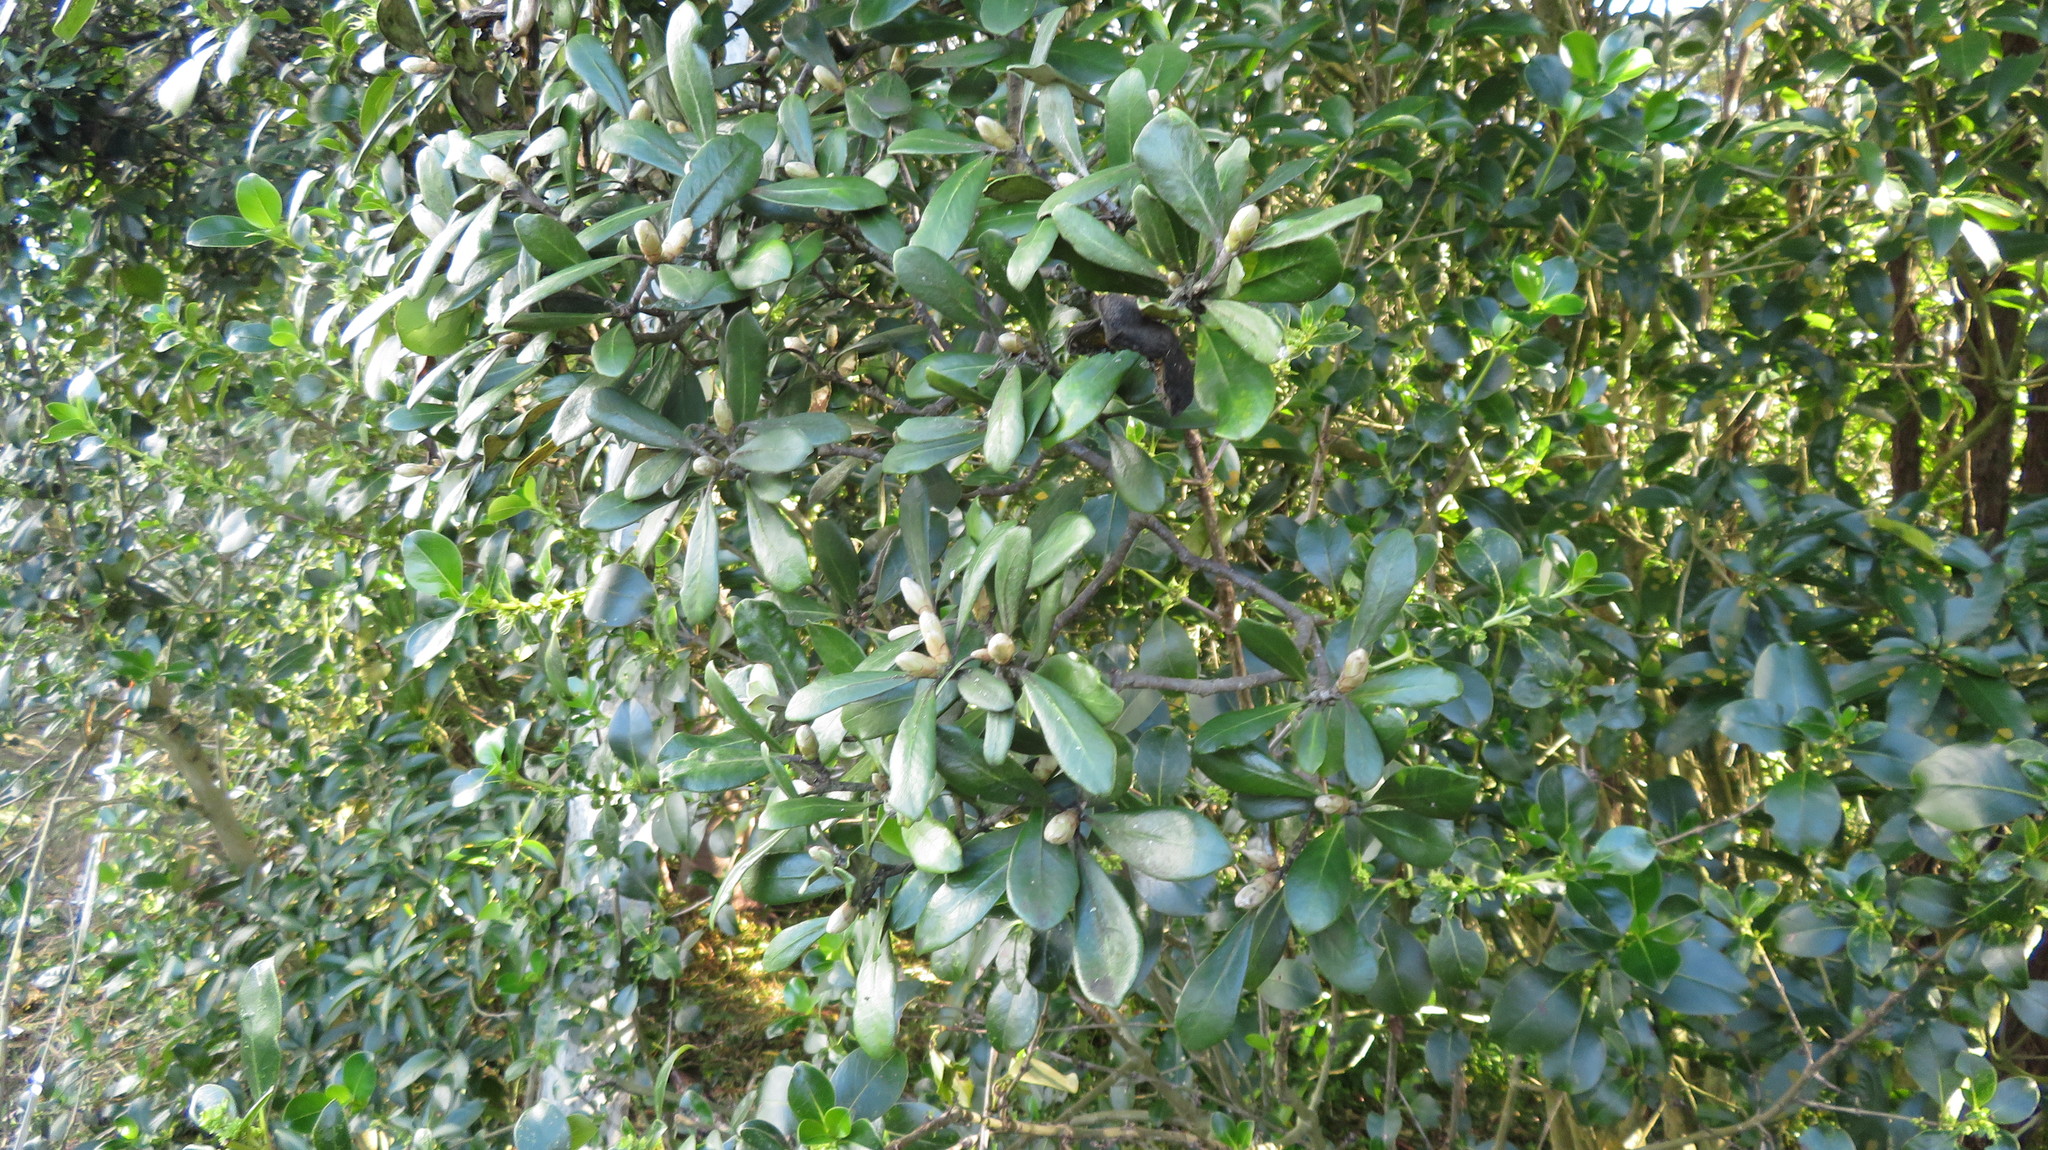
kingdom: Plantae
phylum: Tracheophyta
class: Magnoliopsida
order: Apiales
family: Pittosporaceae
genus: Pittosporum
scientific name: Pittosporum crassifolium
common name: Karo
